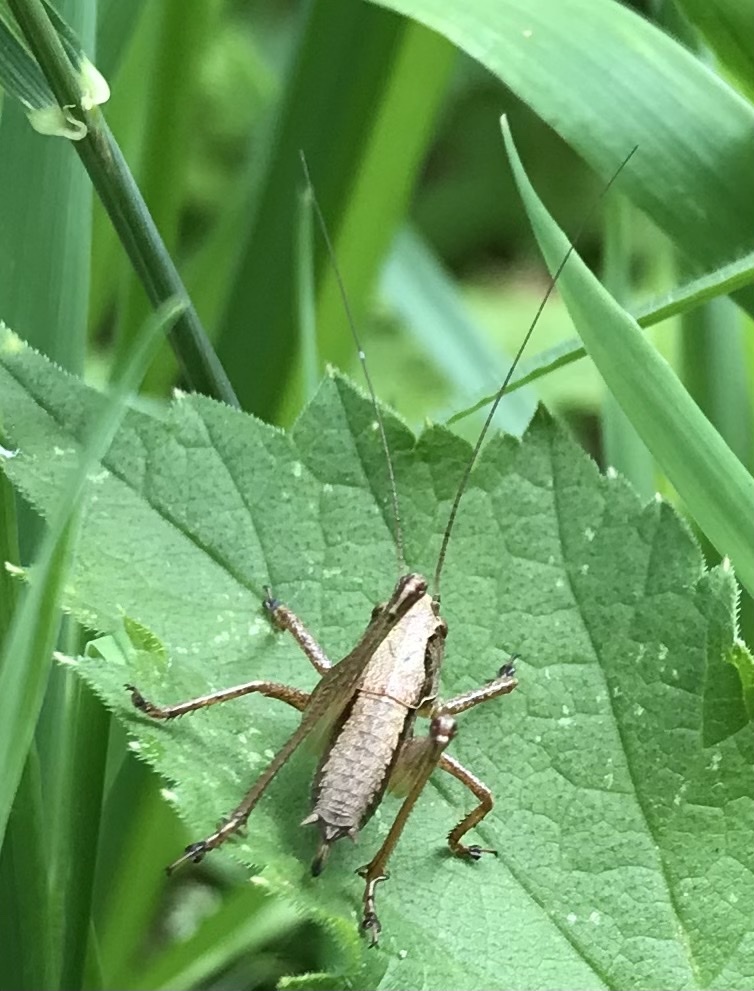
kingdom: Animalia
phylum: Arthropoda
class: Insecta
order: Orthoptera
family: Tettigoniidae
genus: Pholidoptera
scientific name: Pholidoptera griseoaptera
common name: Dark bush-cricket
